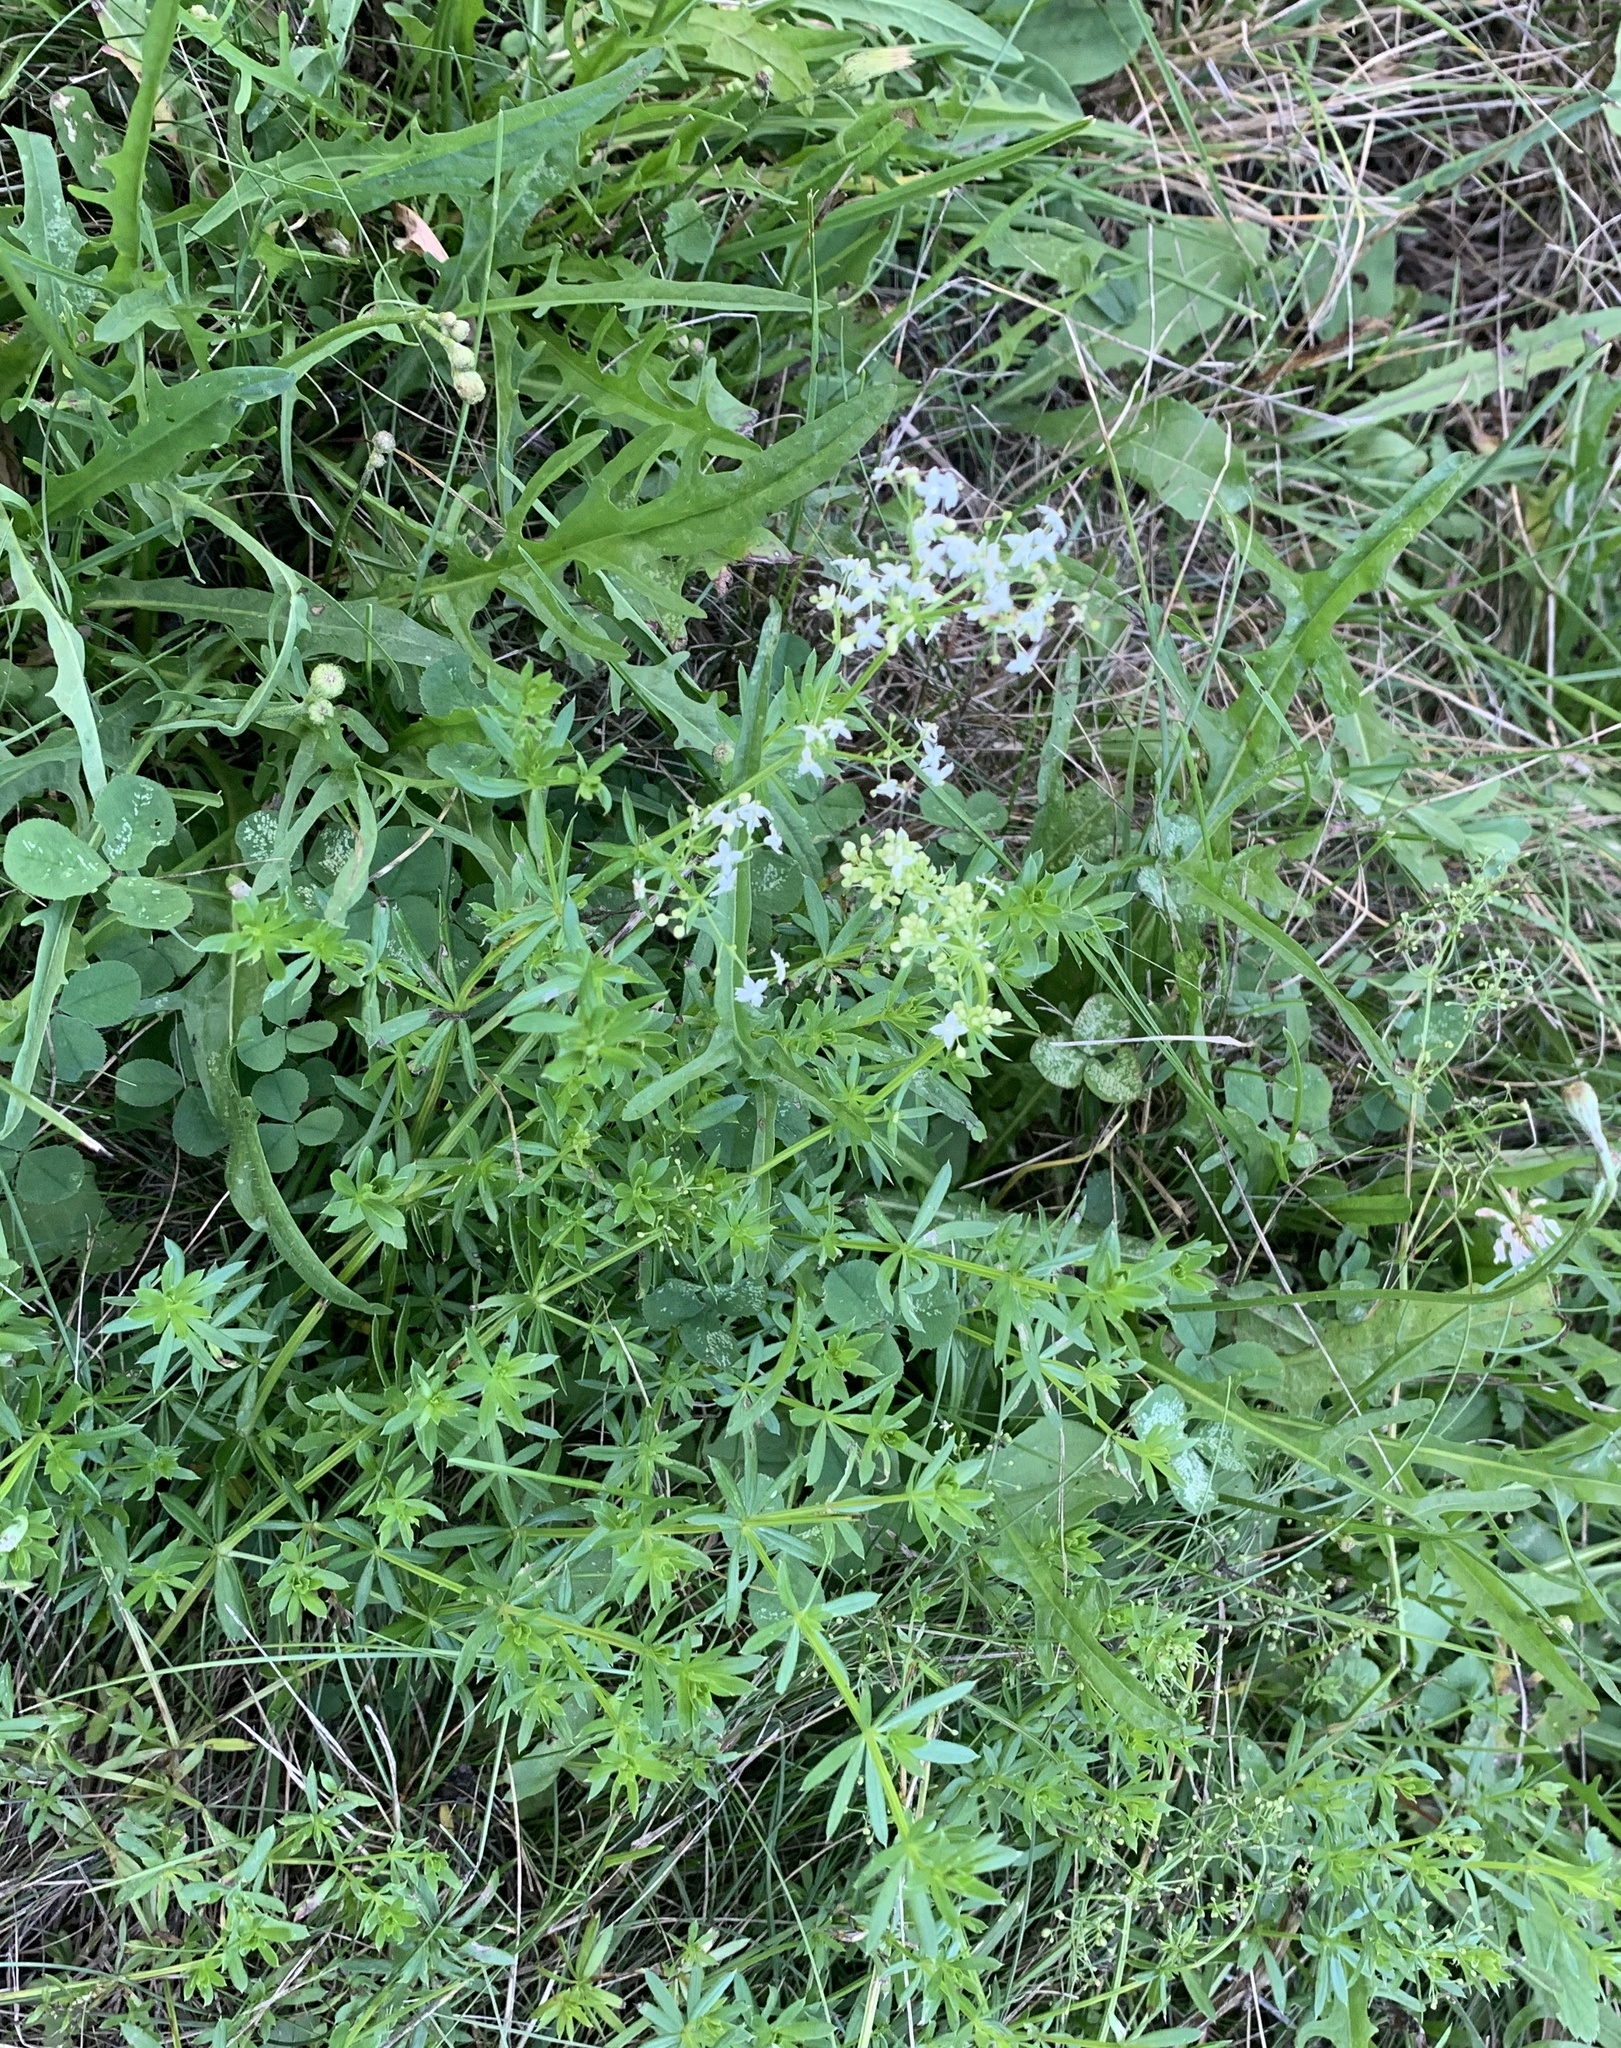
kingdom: Plantae
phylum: Tracheophyta
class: Magnoliopsida
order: Gentianales
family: Rubiaceae
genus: Galium
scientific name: Galium mollugo
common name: Hedge bedstraw
